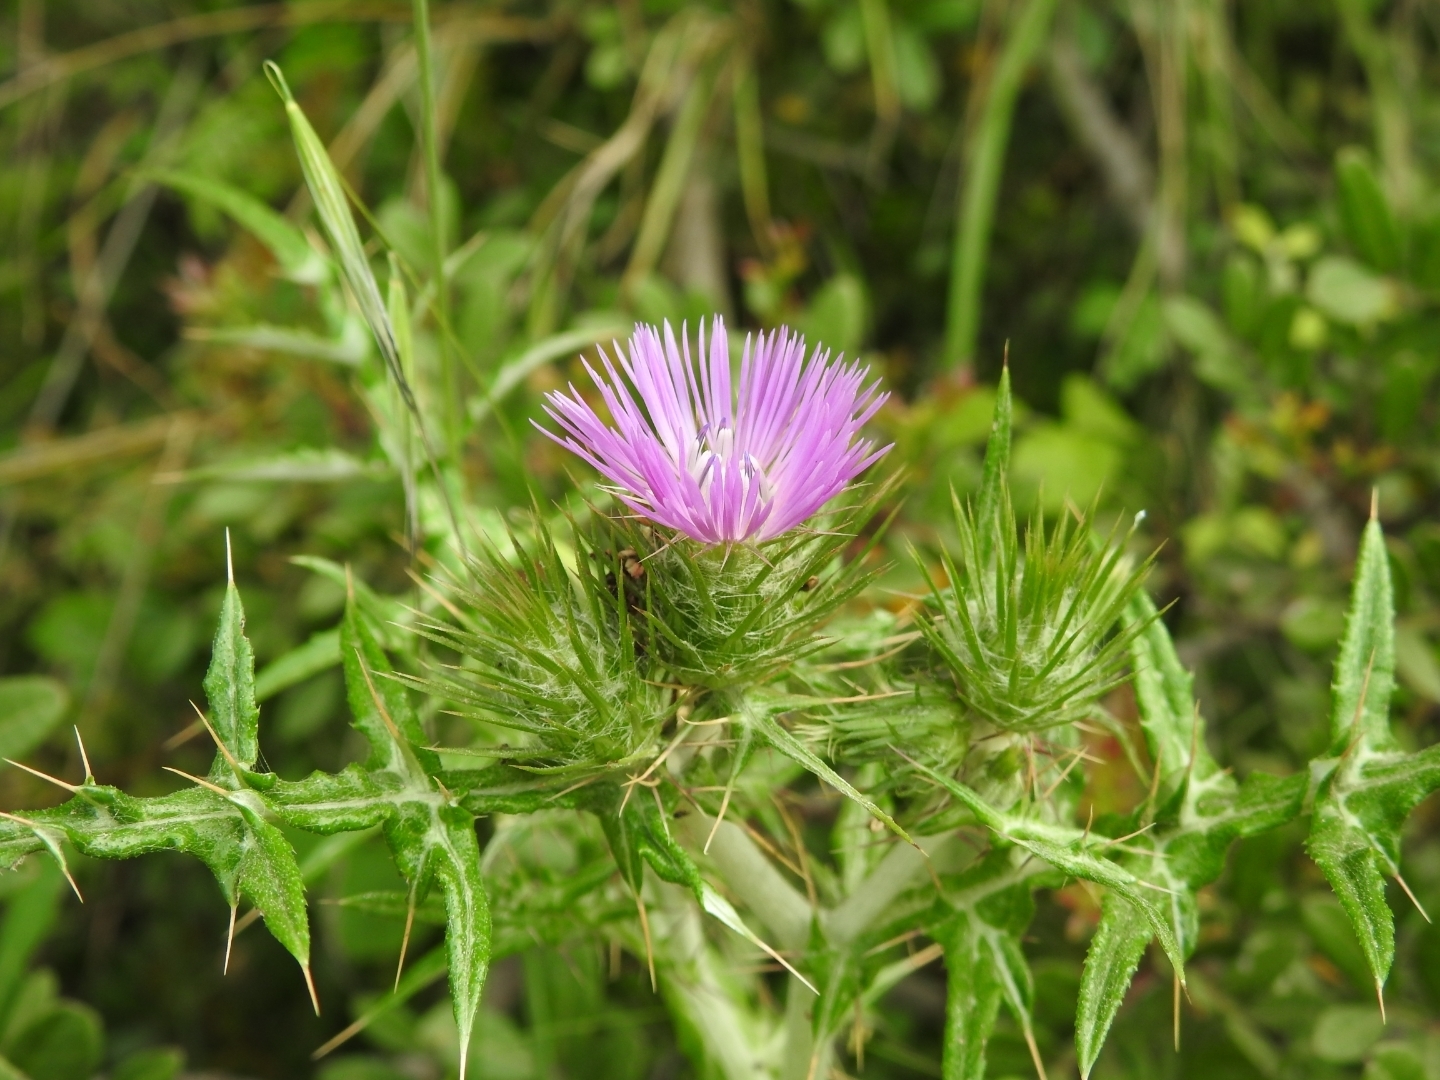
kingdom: Plantae
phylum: Tracheophyta
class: Magnoliopsida
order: Asterales
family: Asteraceae
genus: Galactites
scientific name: Galactites tomentosa
